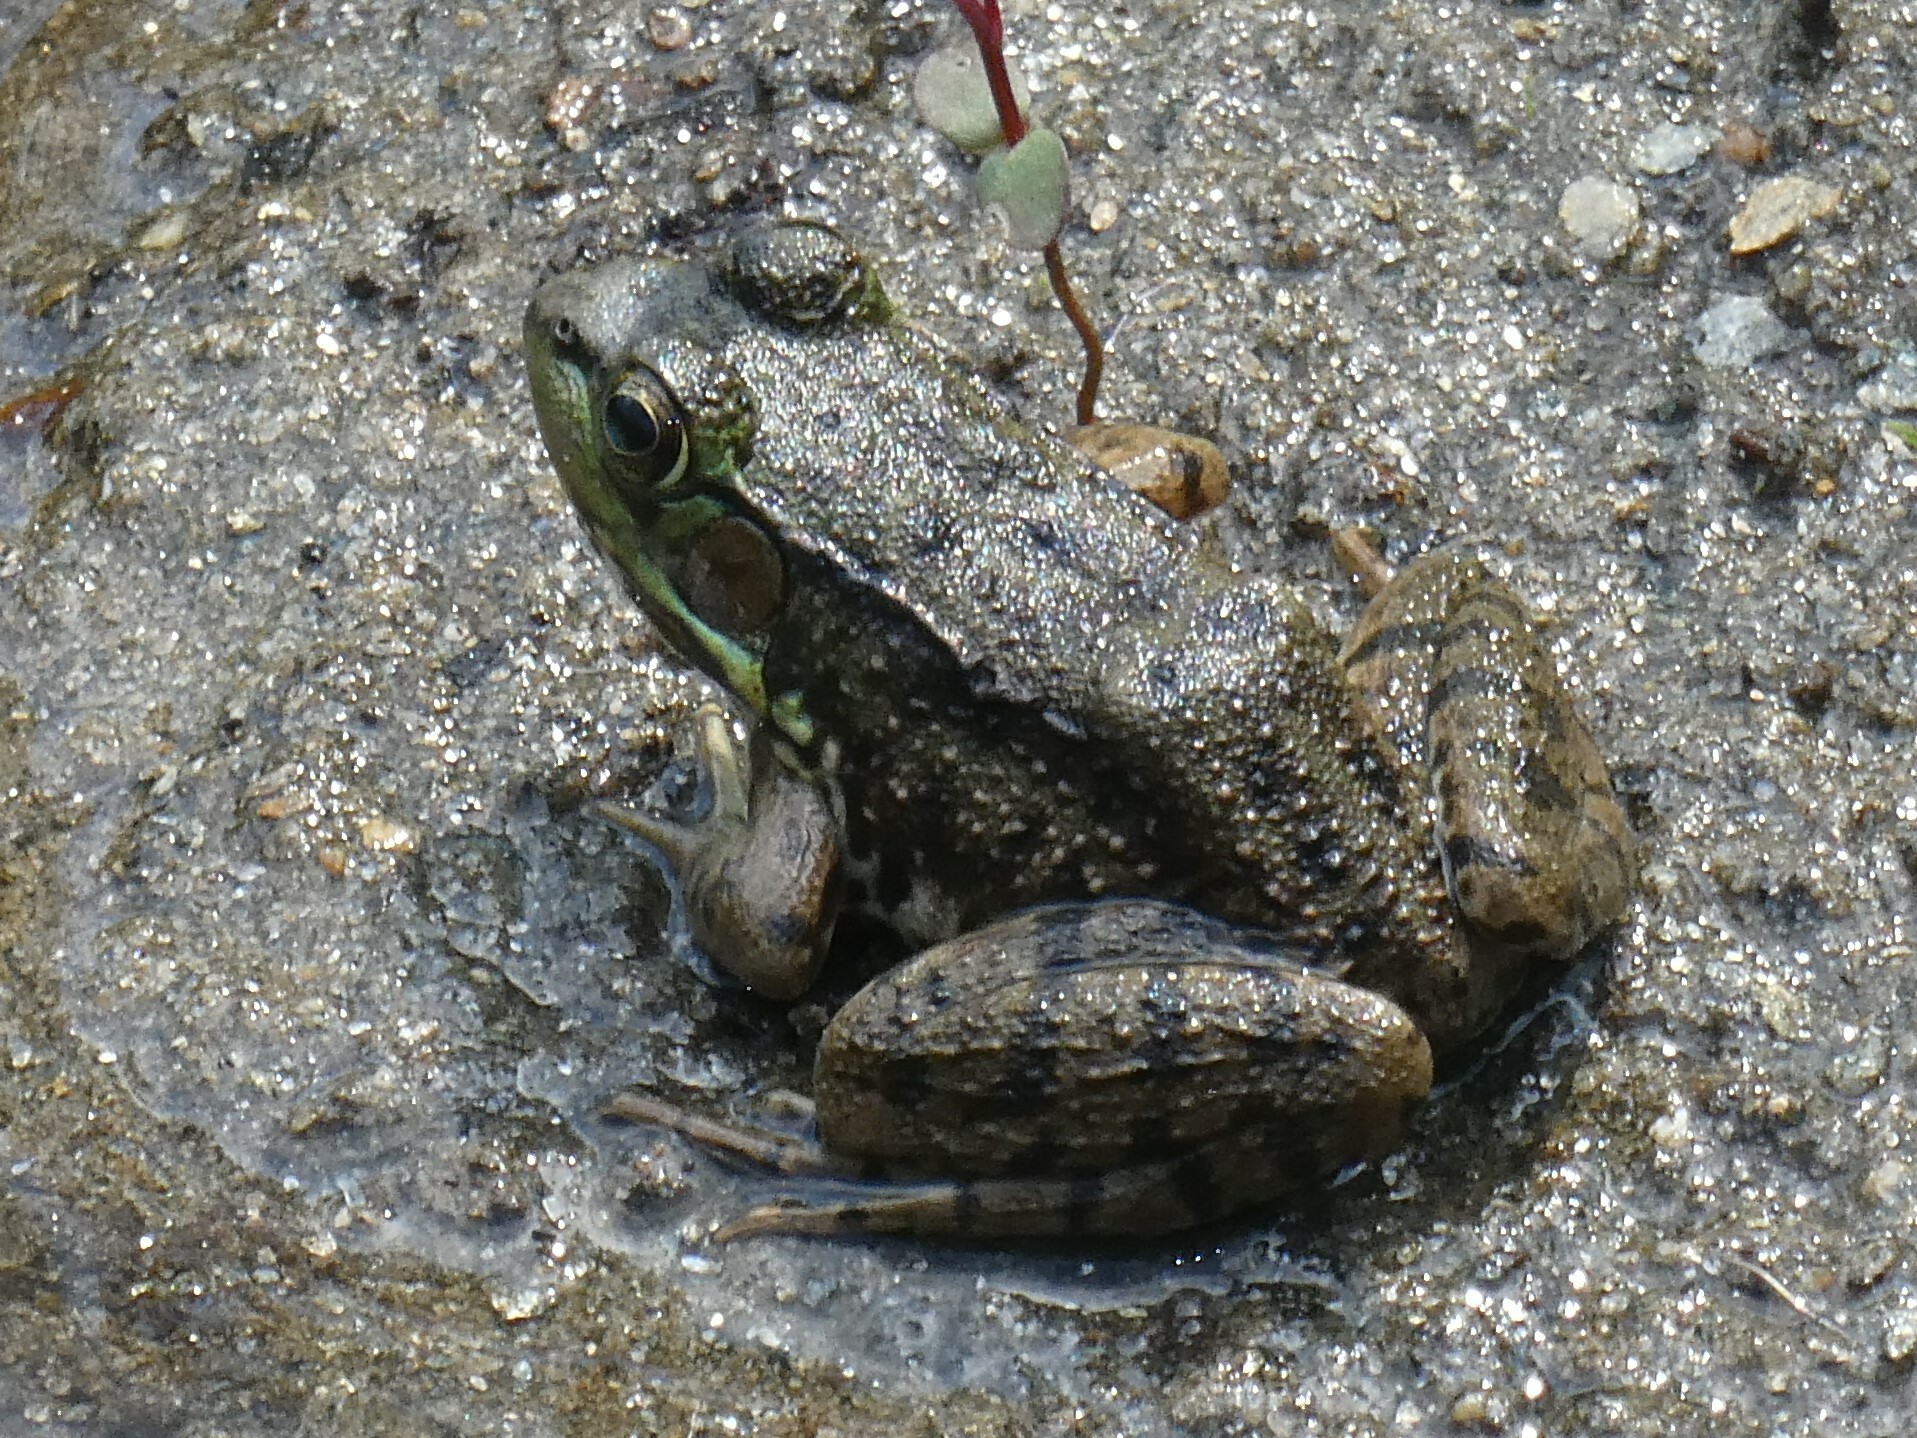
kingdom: Animalia
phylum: Chordata
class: Amphibia
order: Anura
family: Ranidae
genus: Lithobates
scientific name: Lithobates clamitans
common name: Green frog
